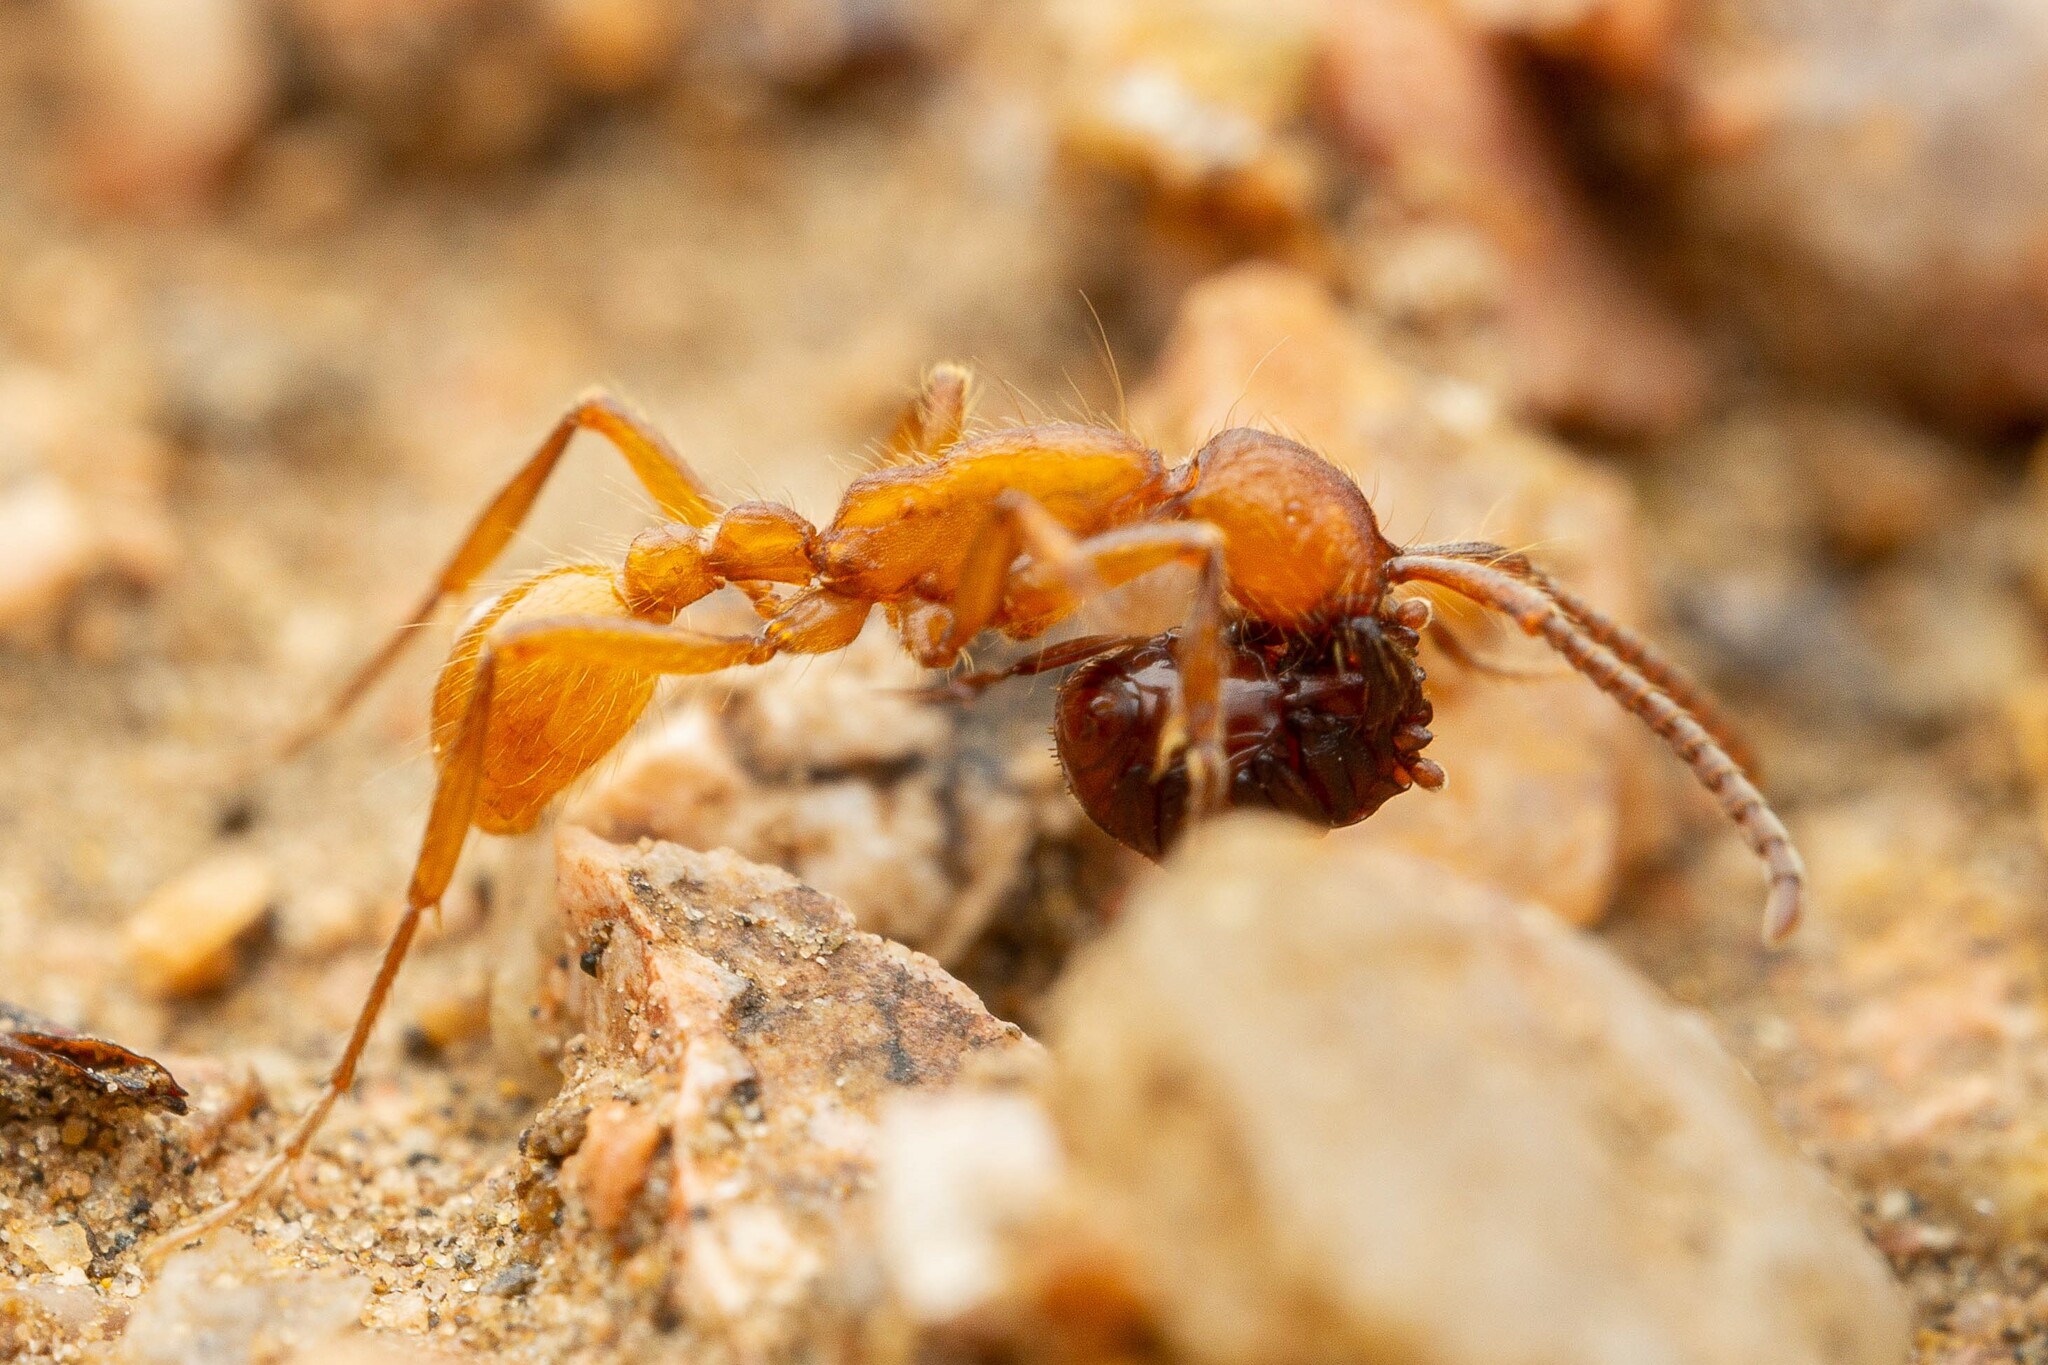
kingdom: Animalia
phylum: Arthropoda
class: Insecta
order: Hymenoptera
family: Formicidae
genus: Neivamyrmex
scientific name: Neivamyrmex
